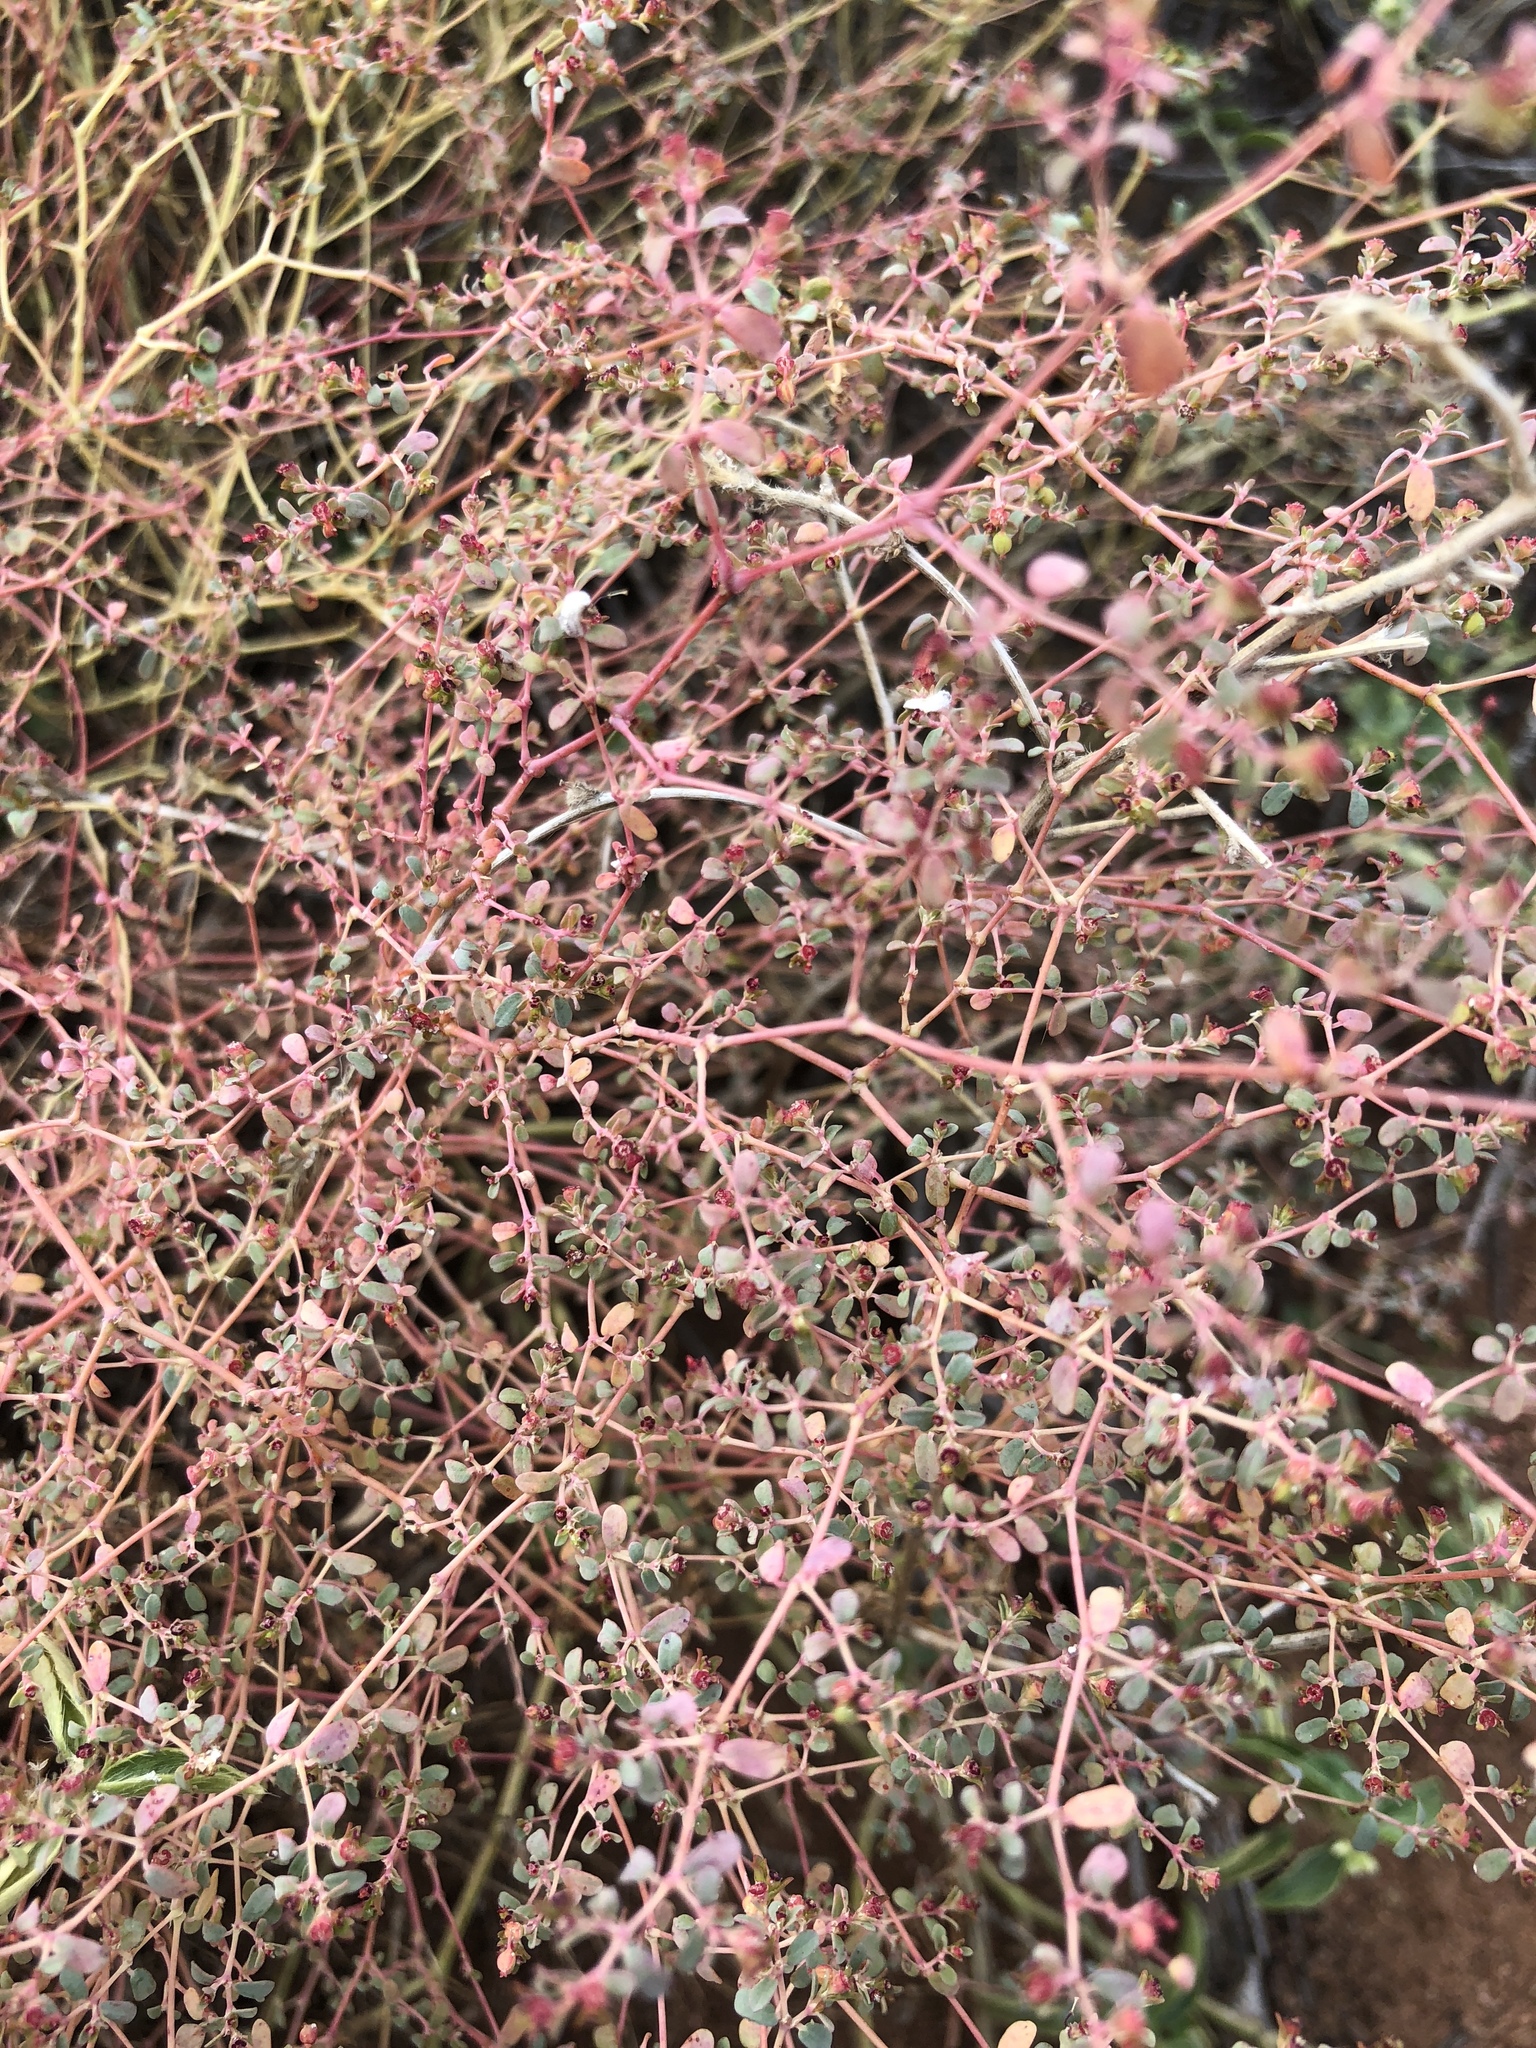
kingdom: Plantae
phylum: Tracheophyta
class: Magnoliopsida
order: Malpighiales
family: Euphorbiaceae
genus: Euphorbia
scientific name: Euphorbia polycarpa
